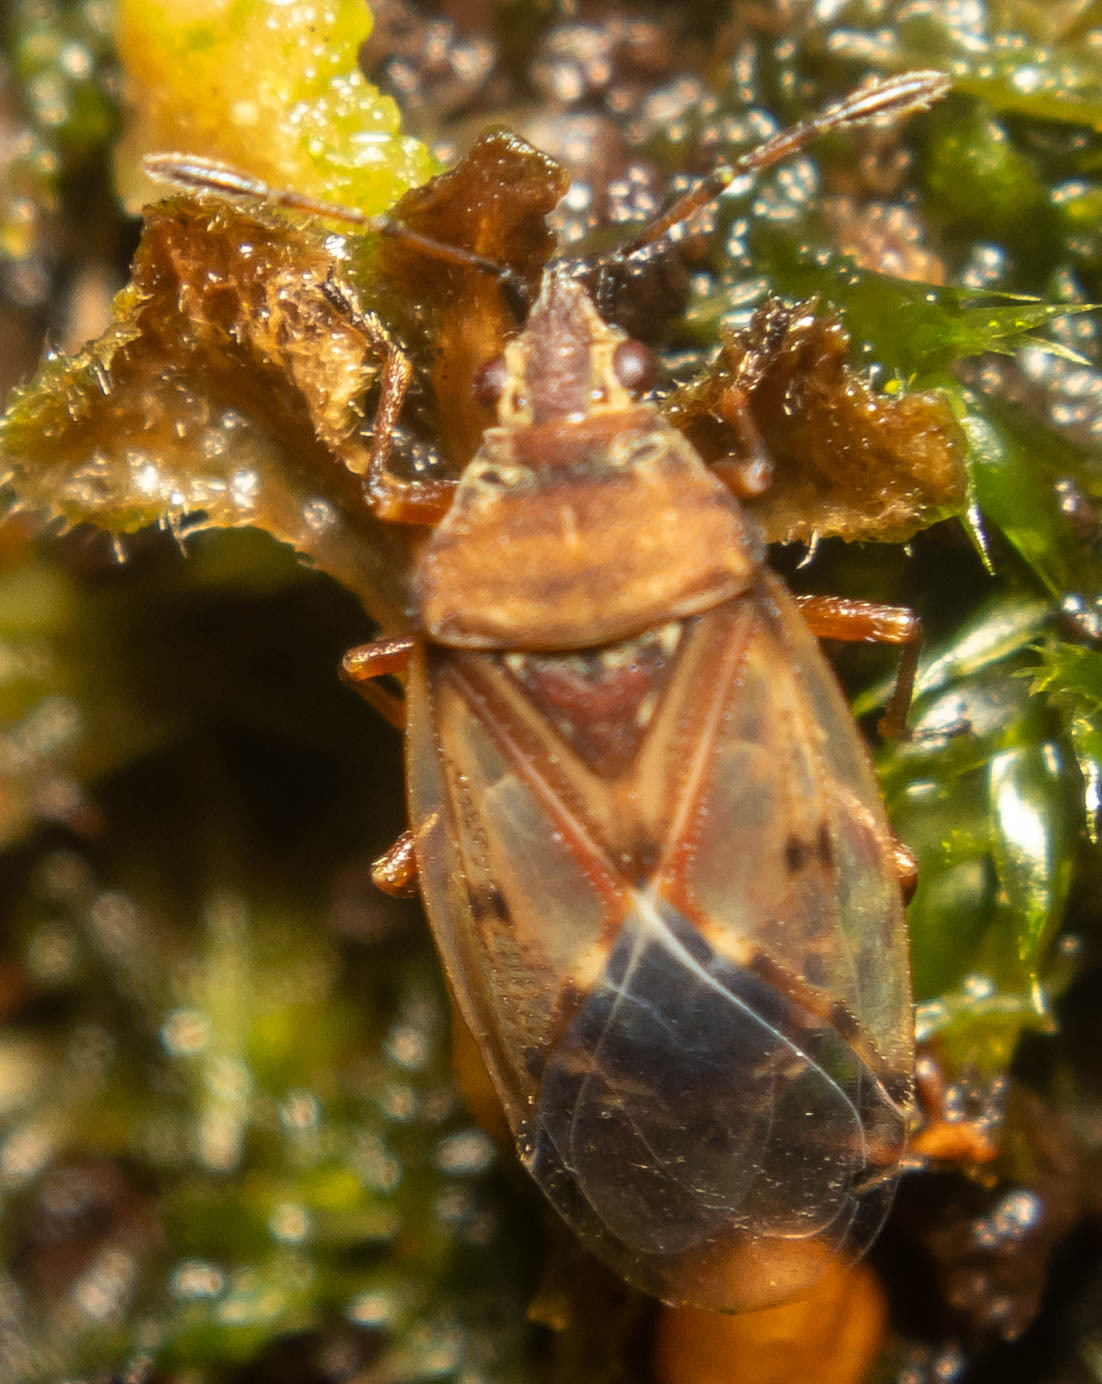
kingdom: Animalia
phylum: Arthropoda
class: Insecta
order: Hemiptera
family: Lygaeidae
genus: Kleidocerys
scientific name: Kleidocerys resedae
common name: Birch catkin bug
